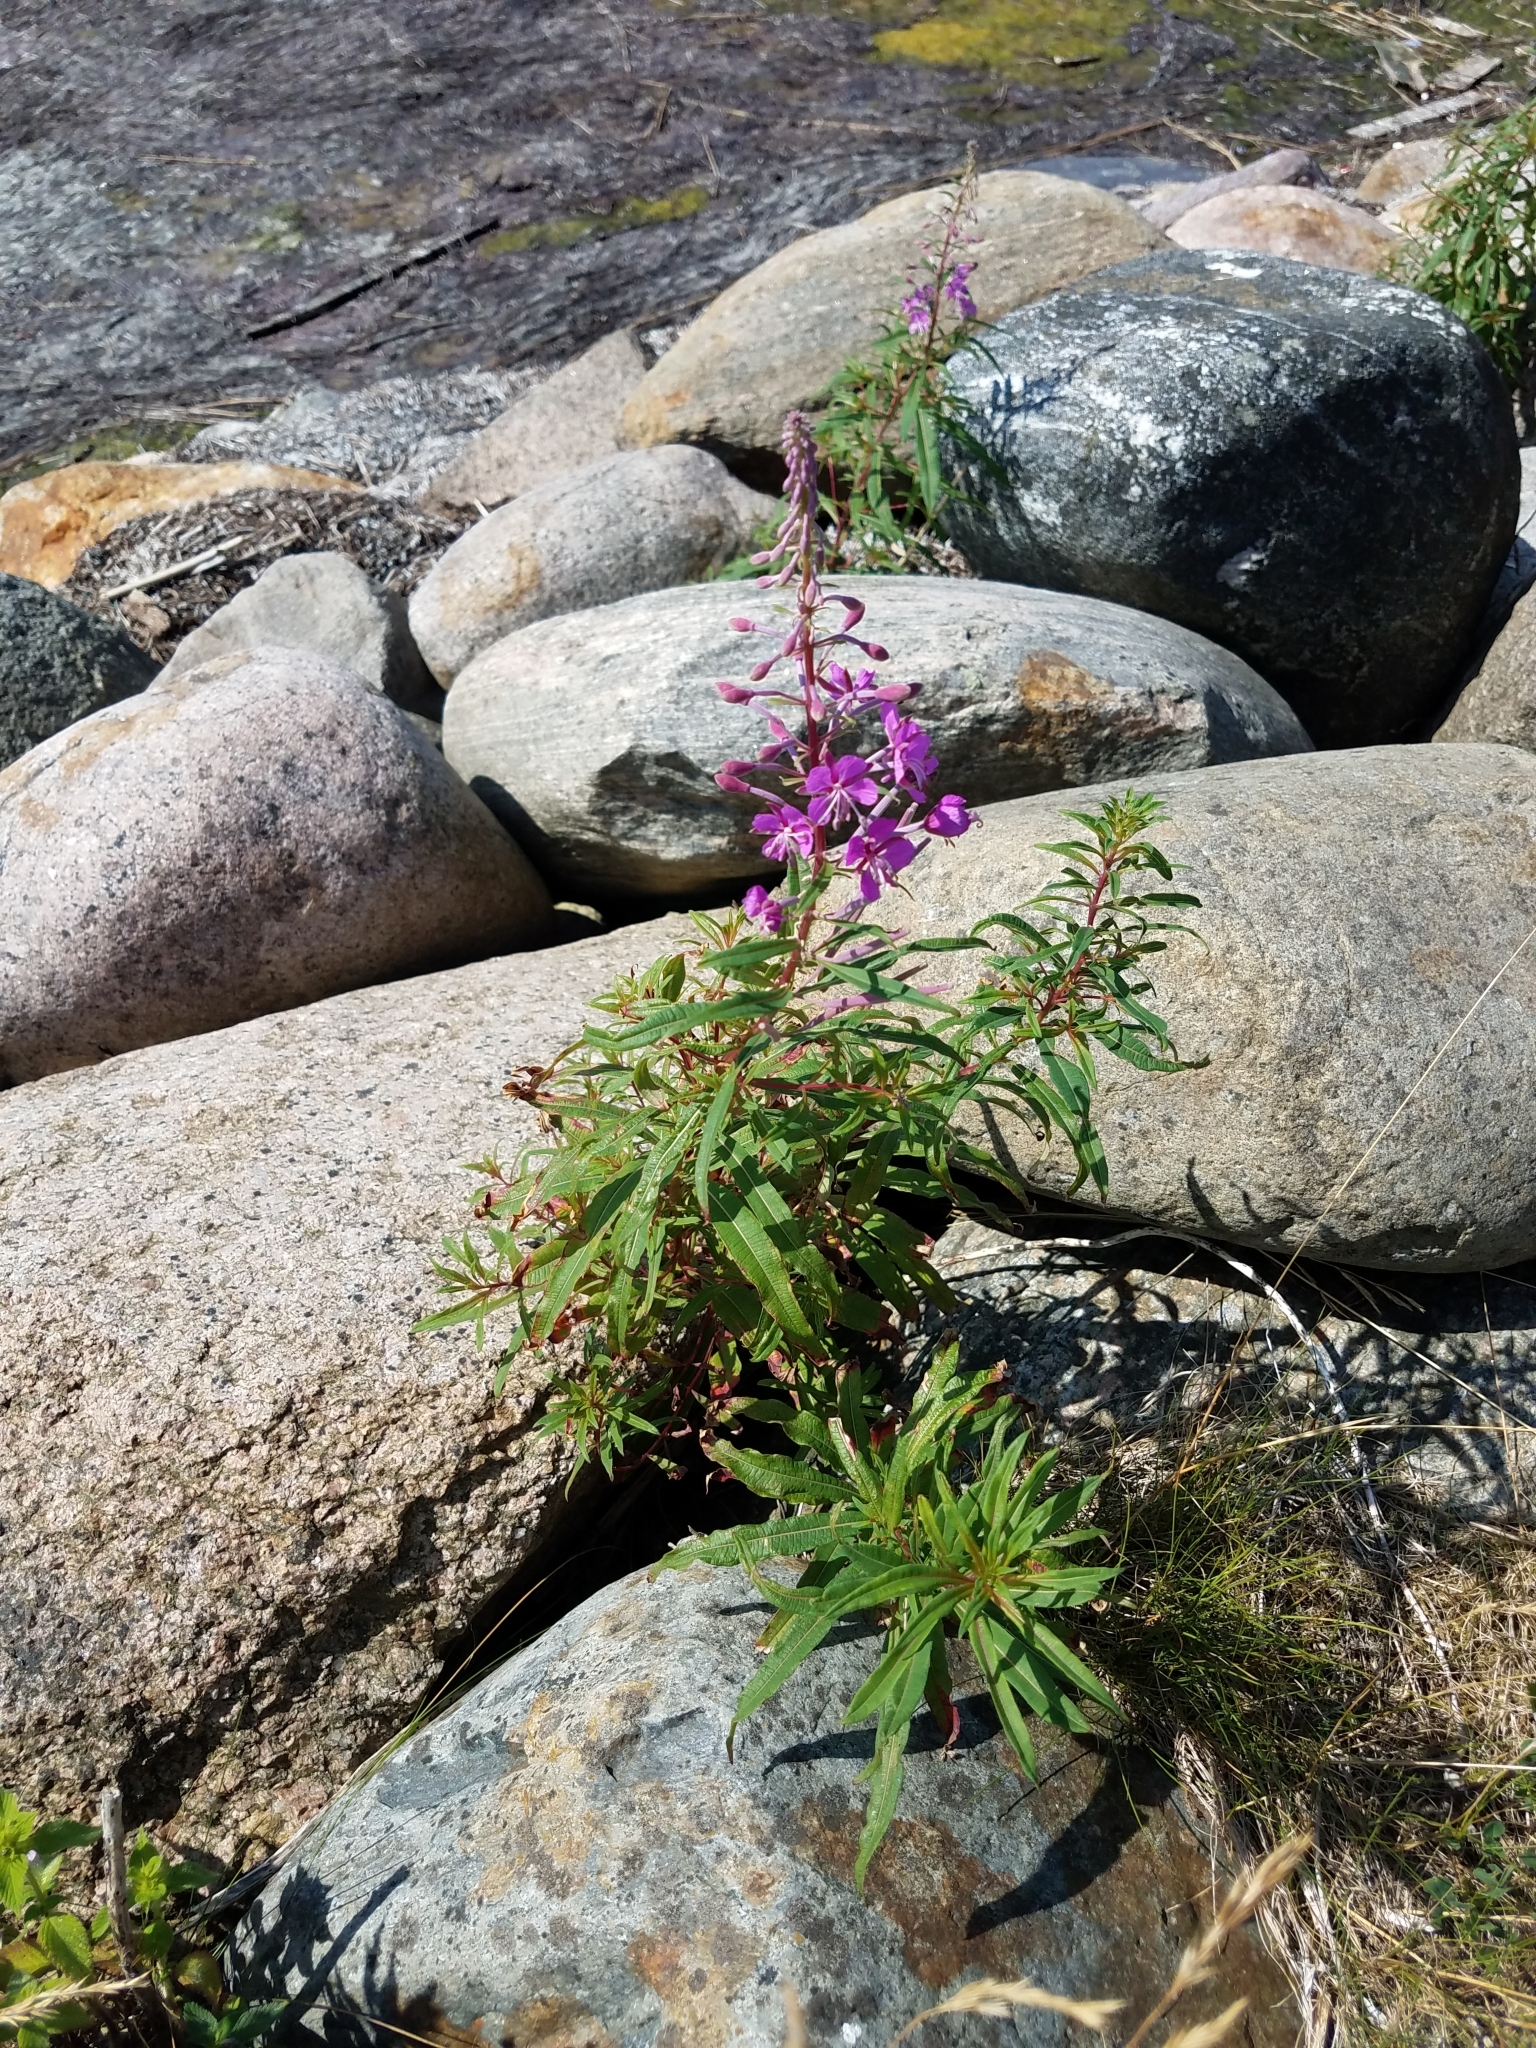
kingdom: Plantae
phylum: Tracheophyta
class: Magnoliopsida
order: Myrtales
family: Onagraceae
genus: Chamaenerion
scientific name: Chamaenerion angustifolium
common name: Fireweed
